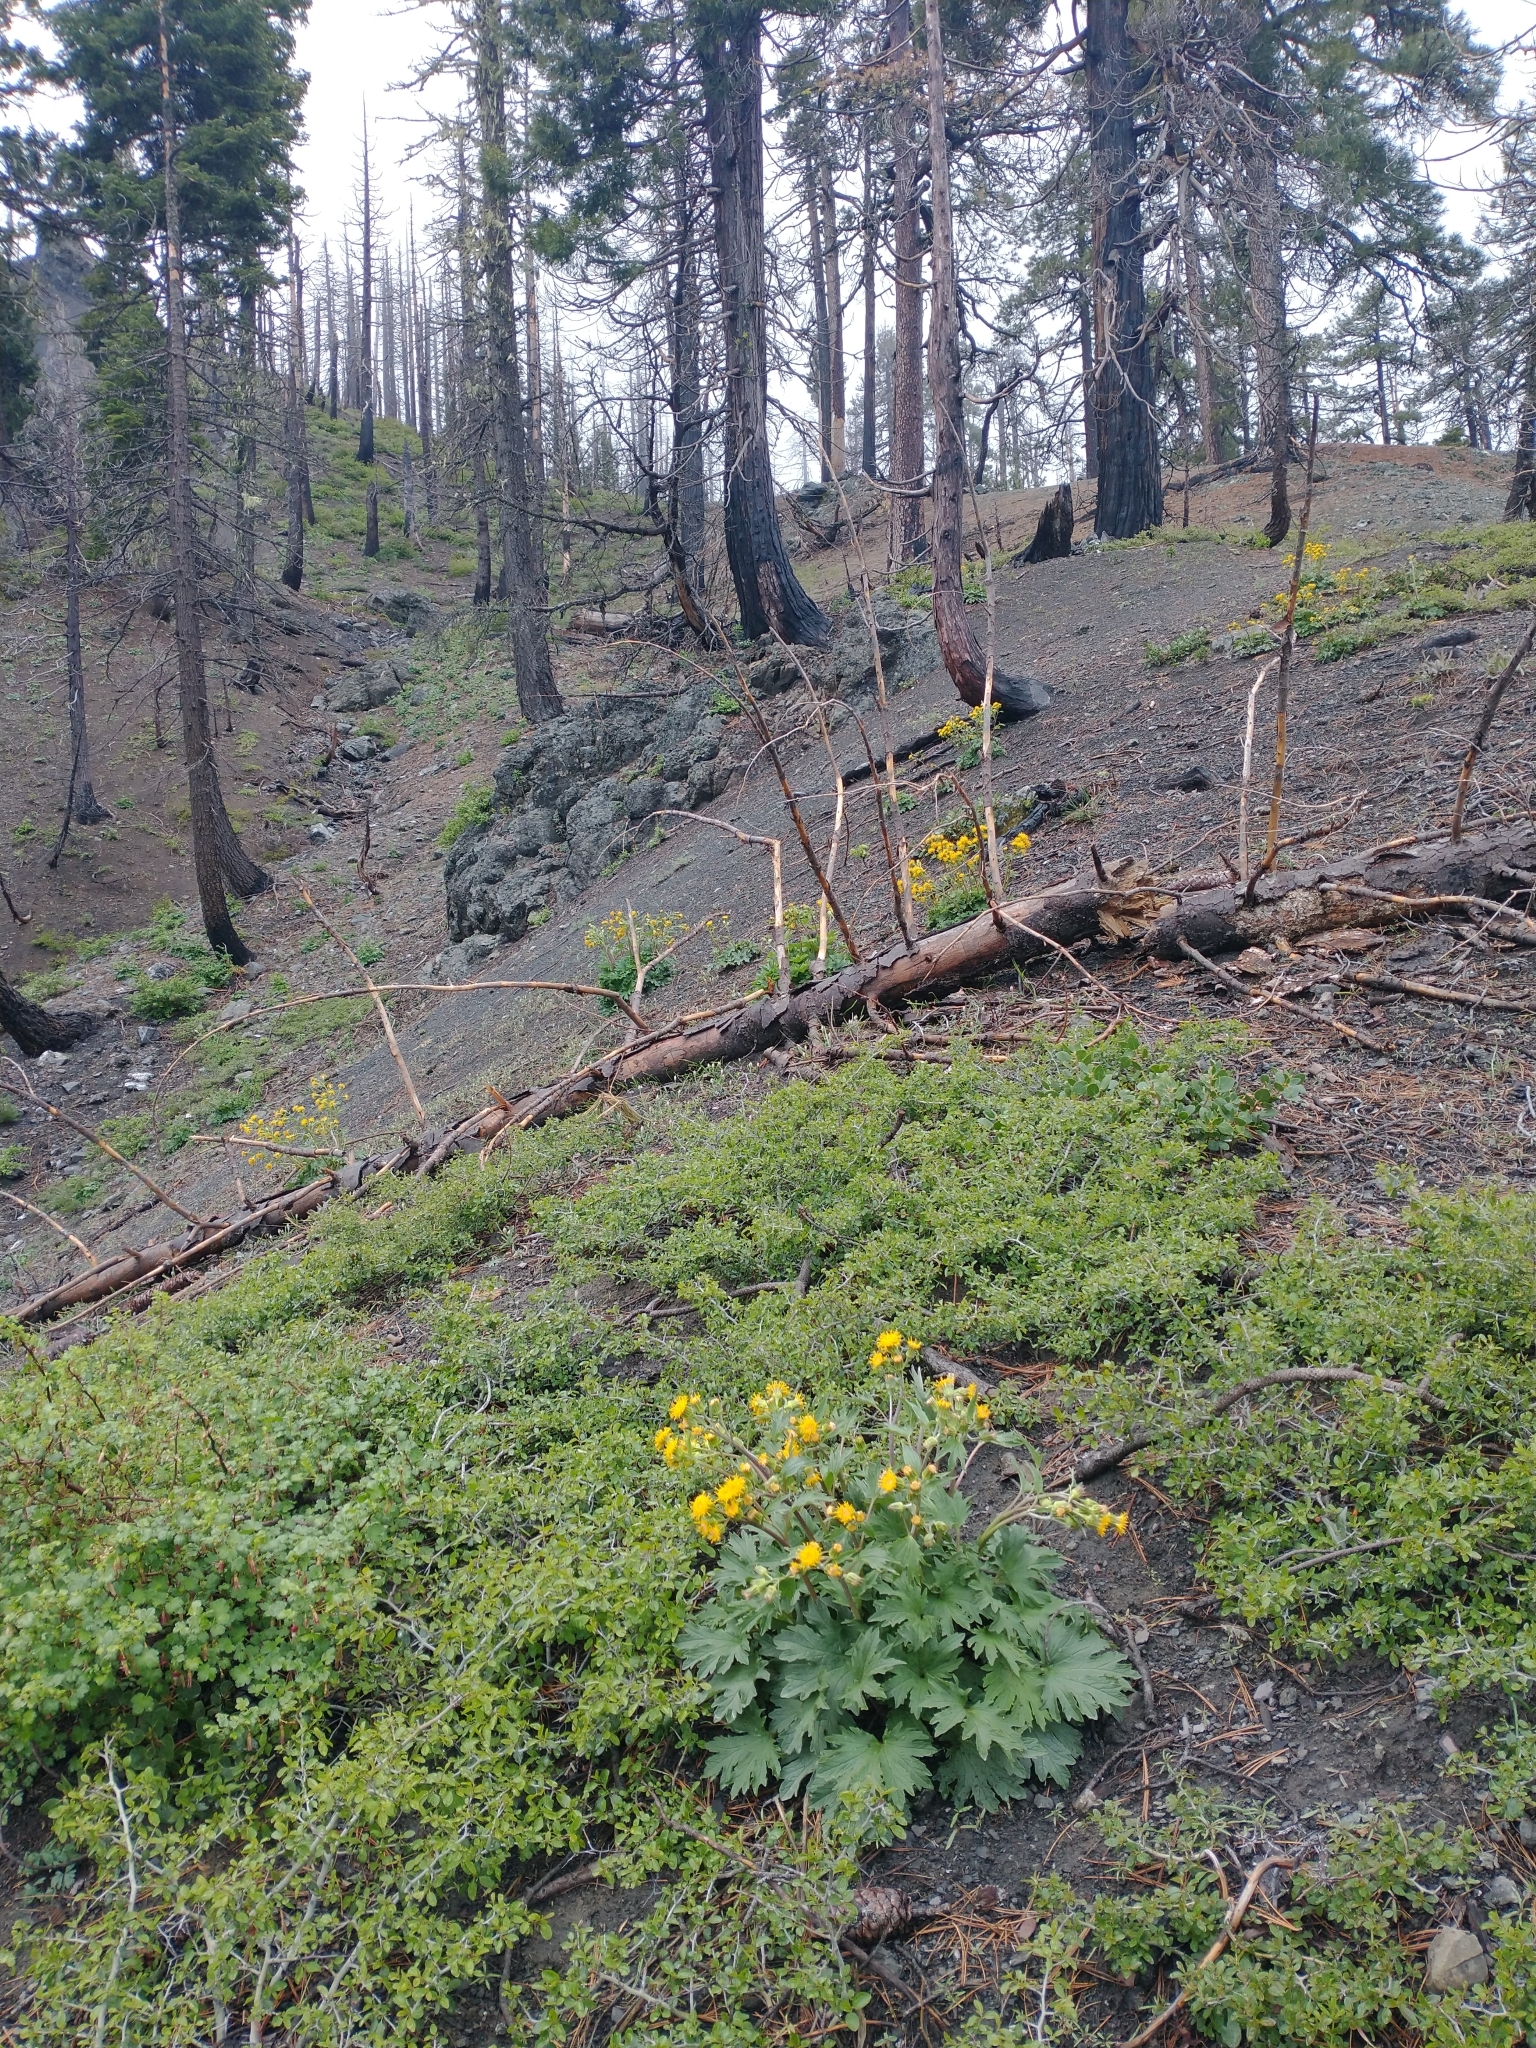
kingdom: Plantae
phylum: Tracheophyta
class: Magnoliopsida
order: Asterales
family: Asteraceae
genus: Cacaliopsis
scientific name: Cacaliopsis nardosmia
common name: Silvercrown
